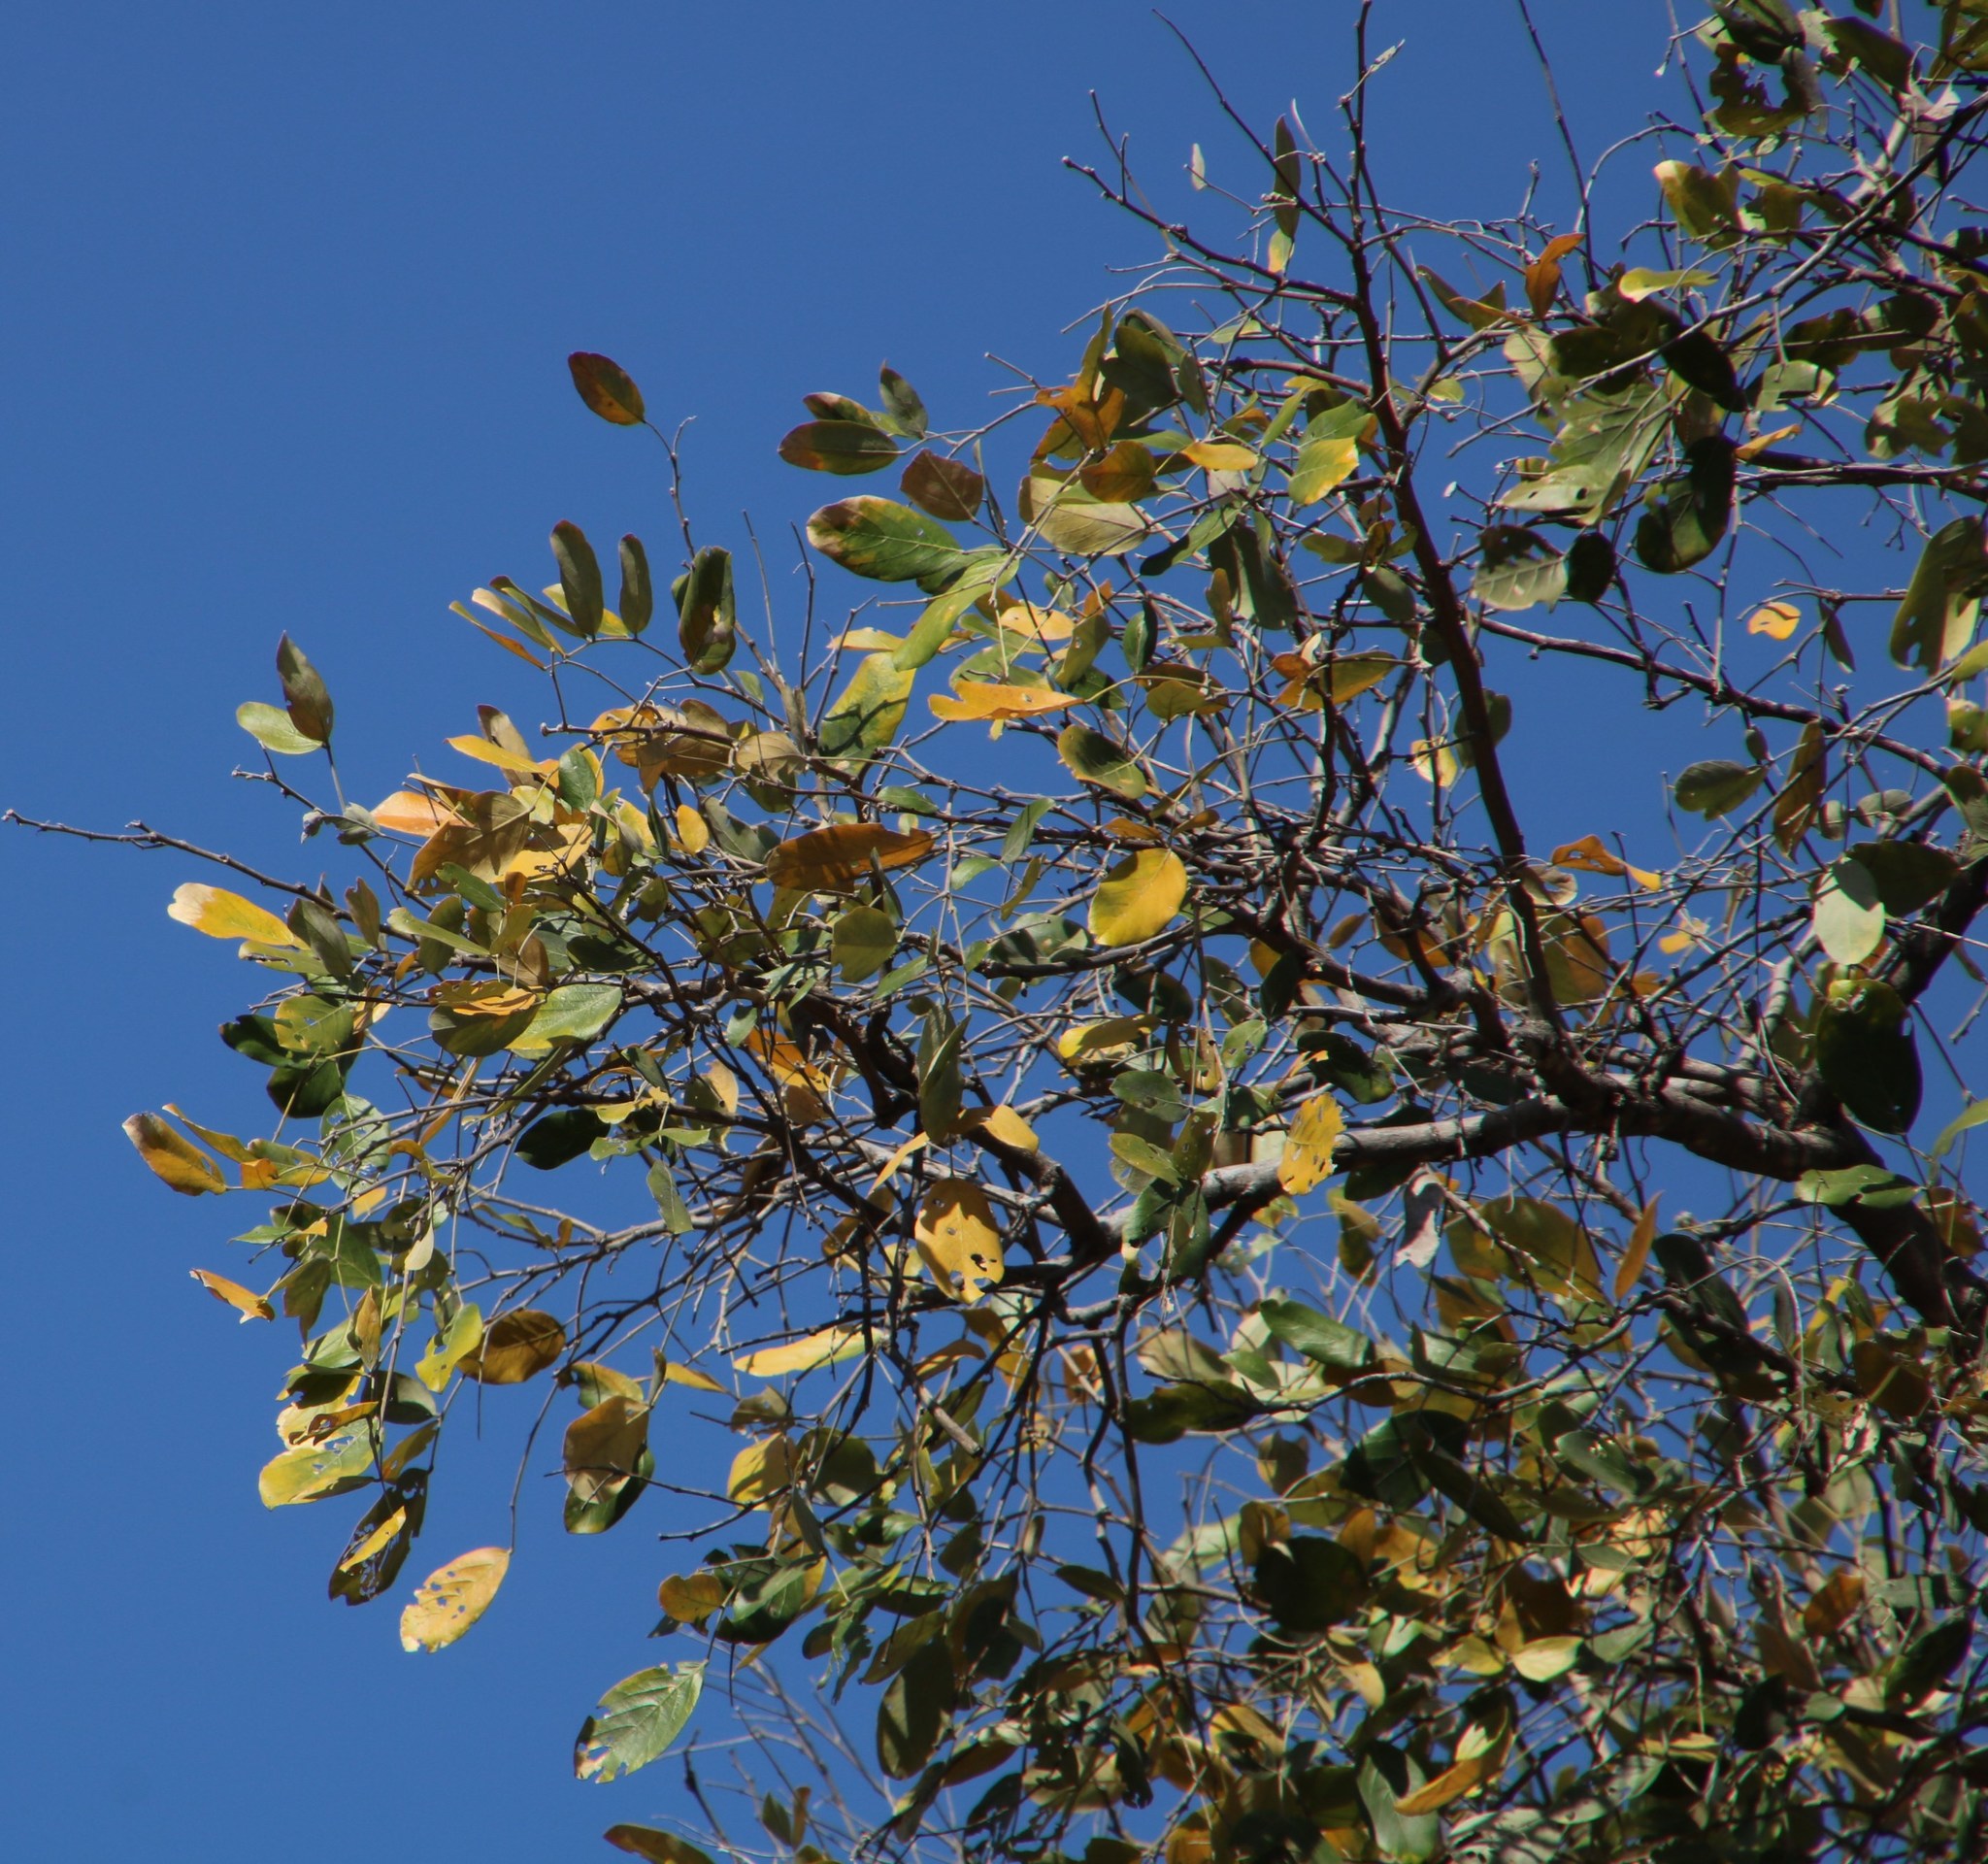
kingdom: Plantae
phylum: Tracheophyta
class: Magnoliopsida
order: Fabales
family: Fabaceae
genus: Philenoptera
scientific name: Philenoptera violacea
